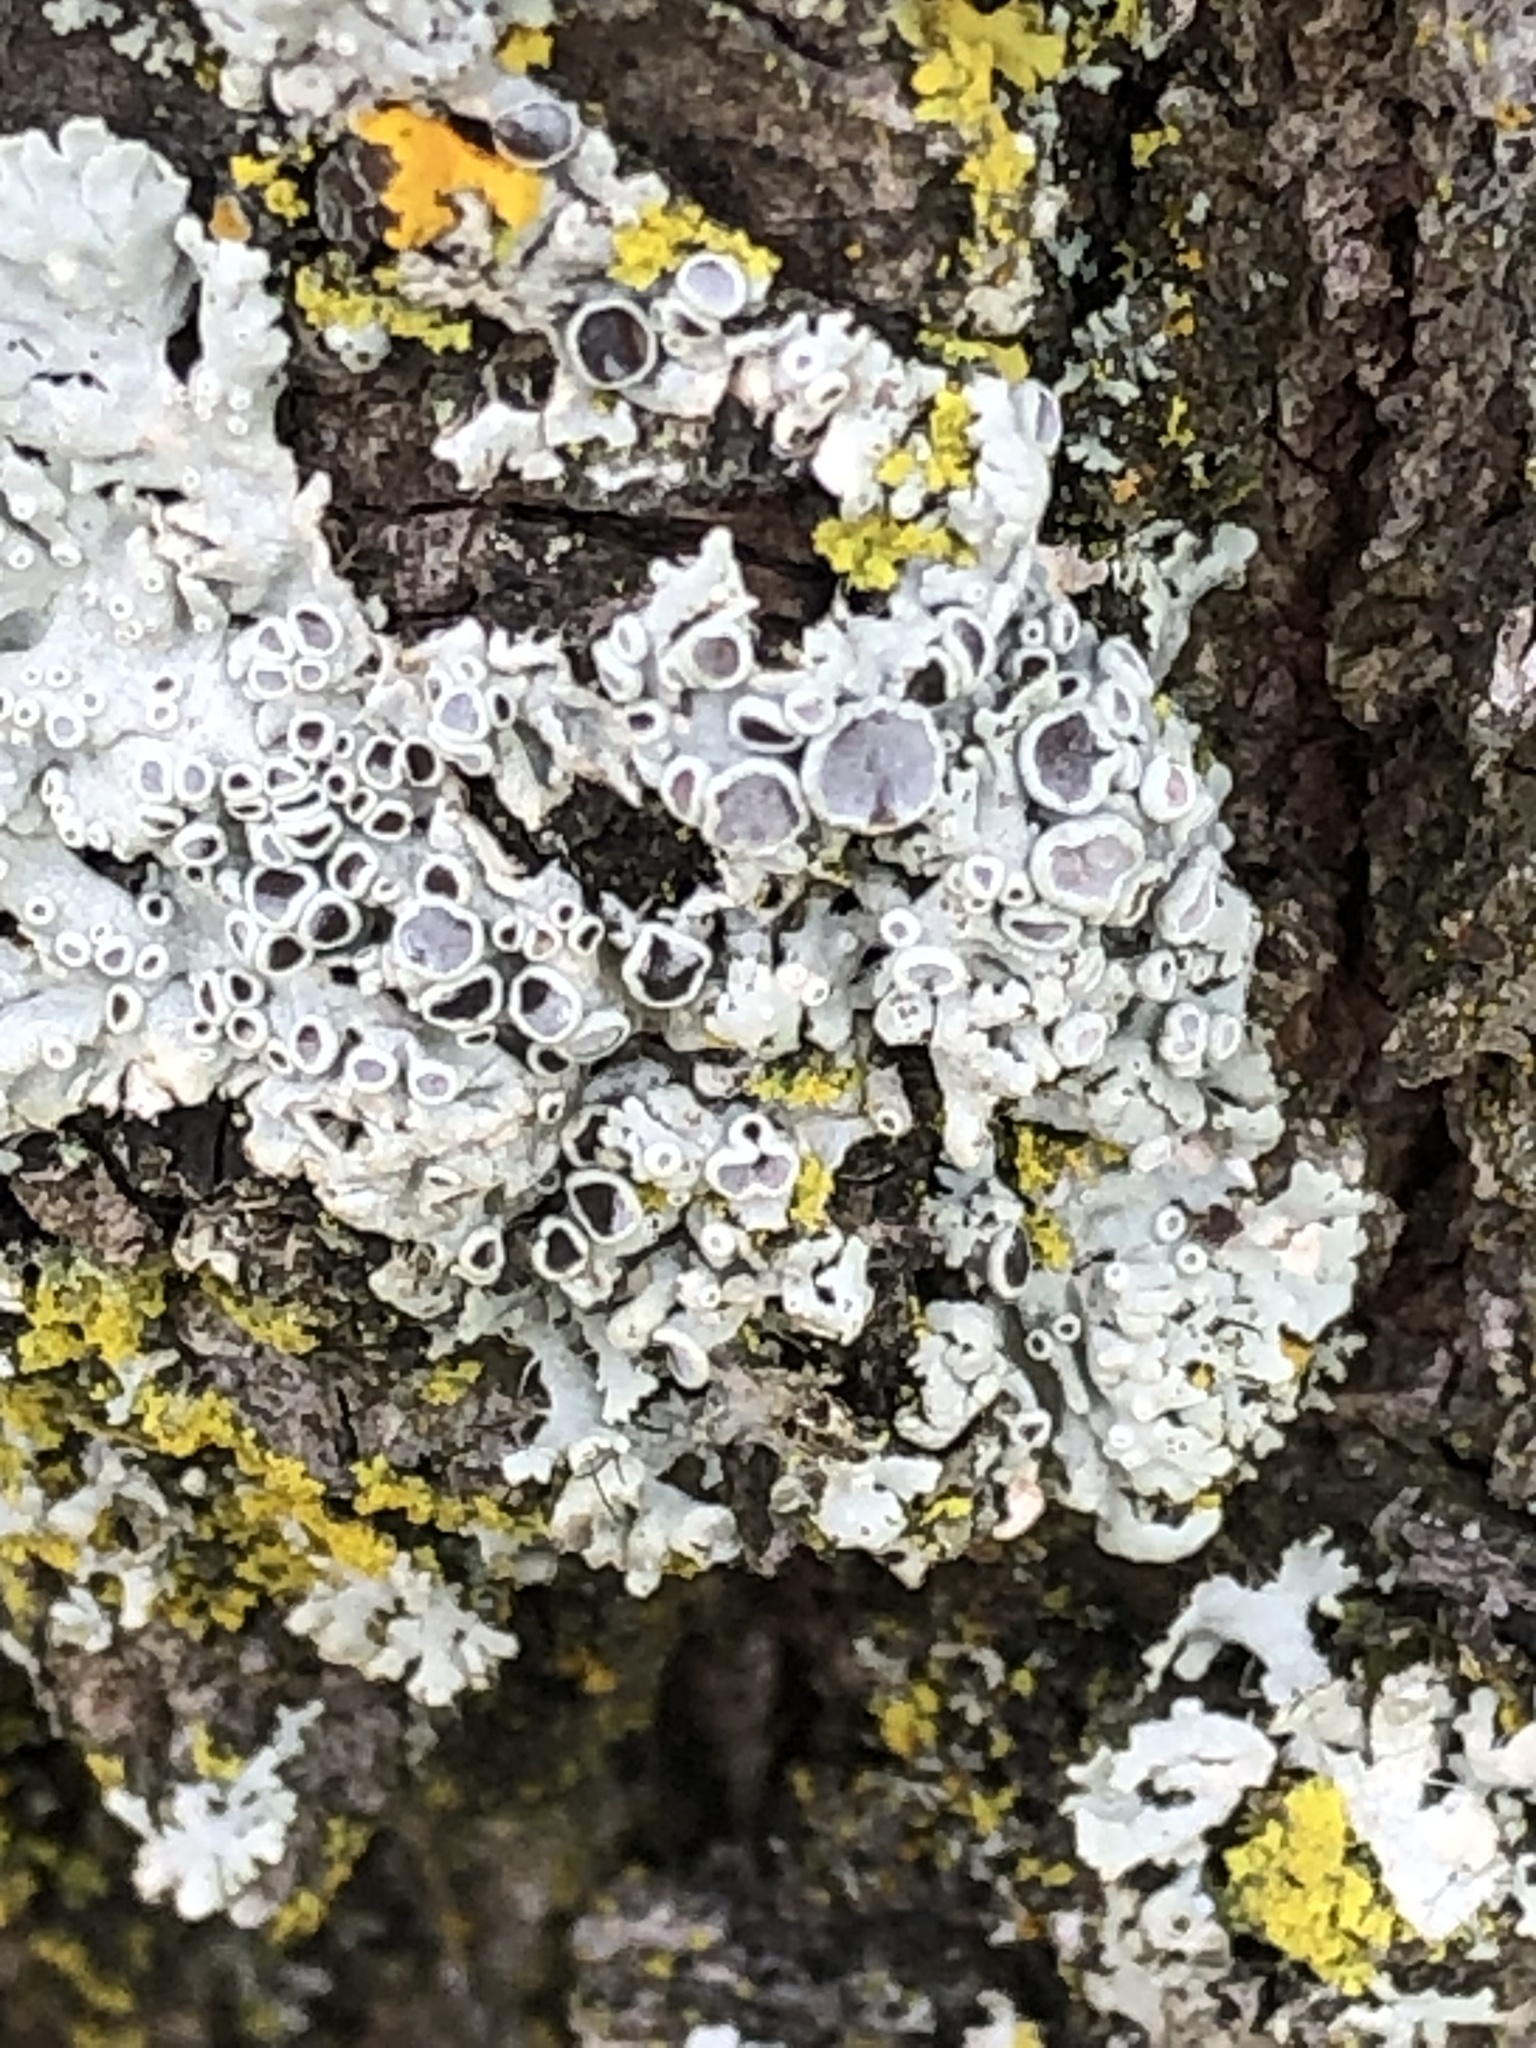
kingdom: Fungi
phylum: Ascomycota
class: Lecanoromycetes
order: Caliciales
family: Physciaceae
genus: Physcia
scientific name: Physcia stellaris
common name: Star rosette lichen
